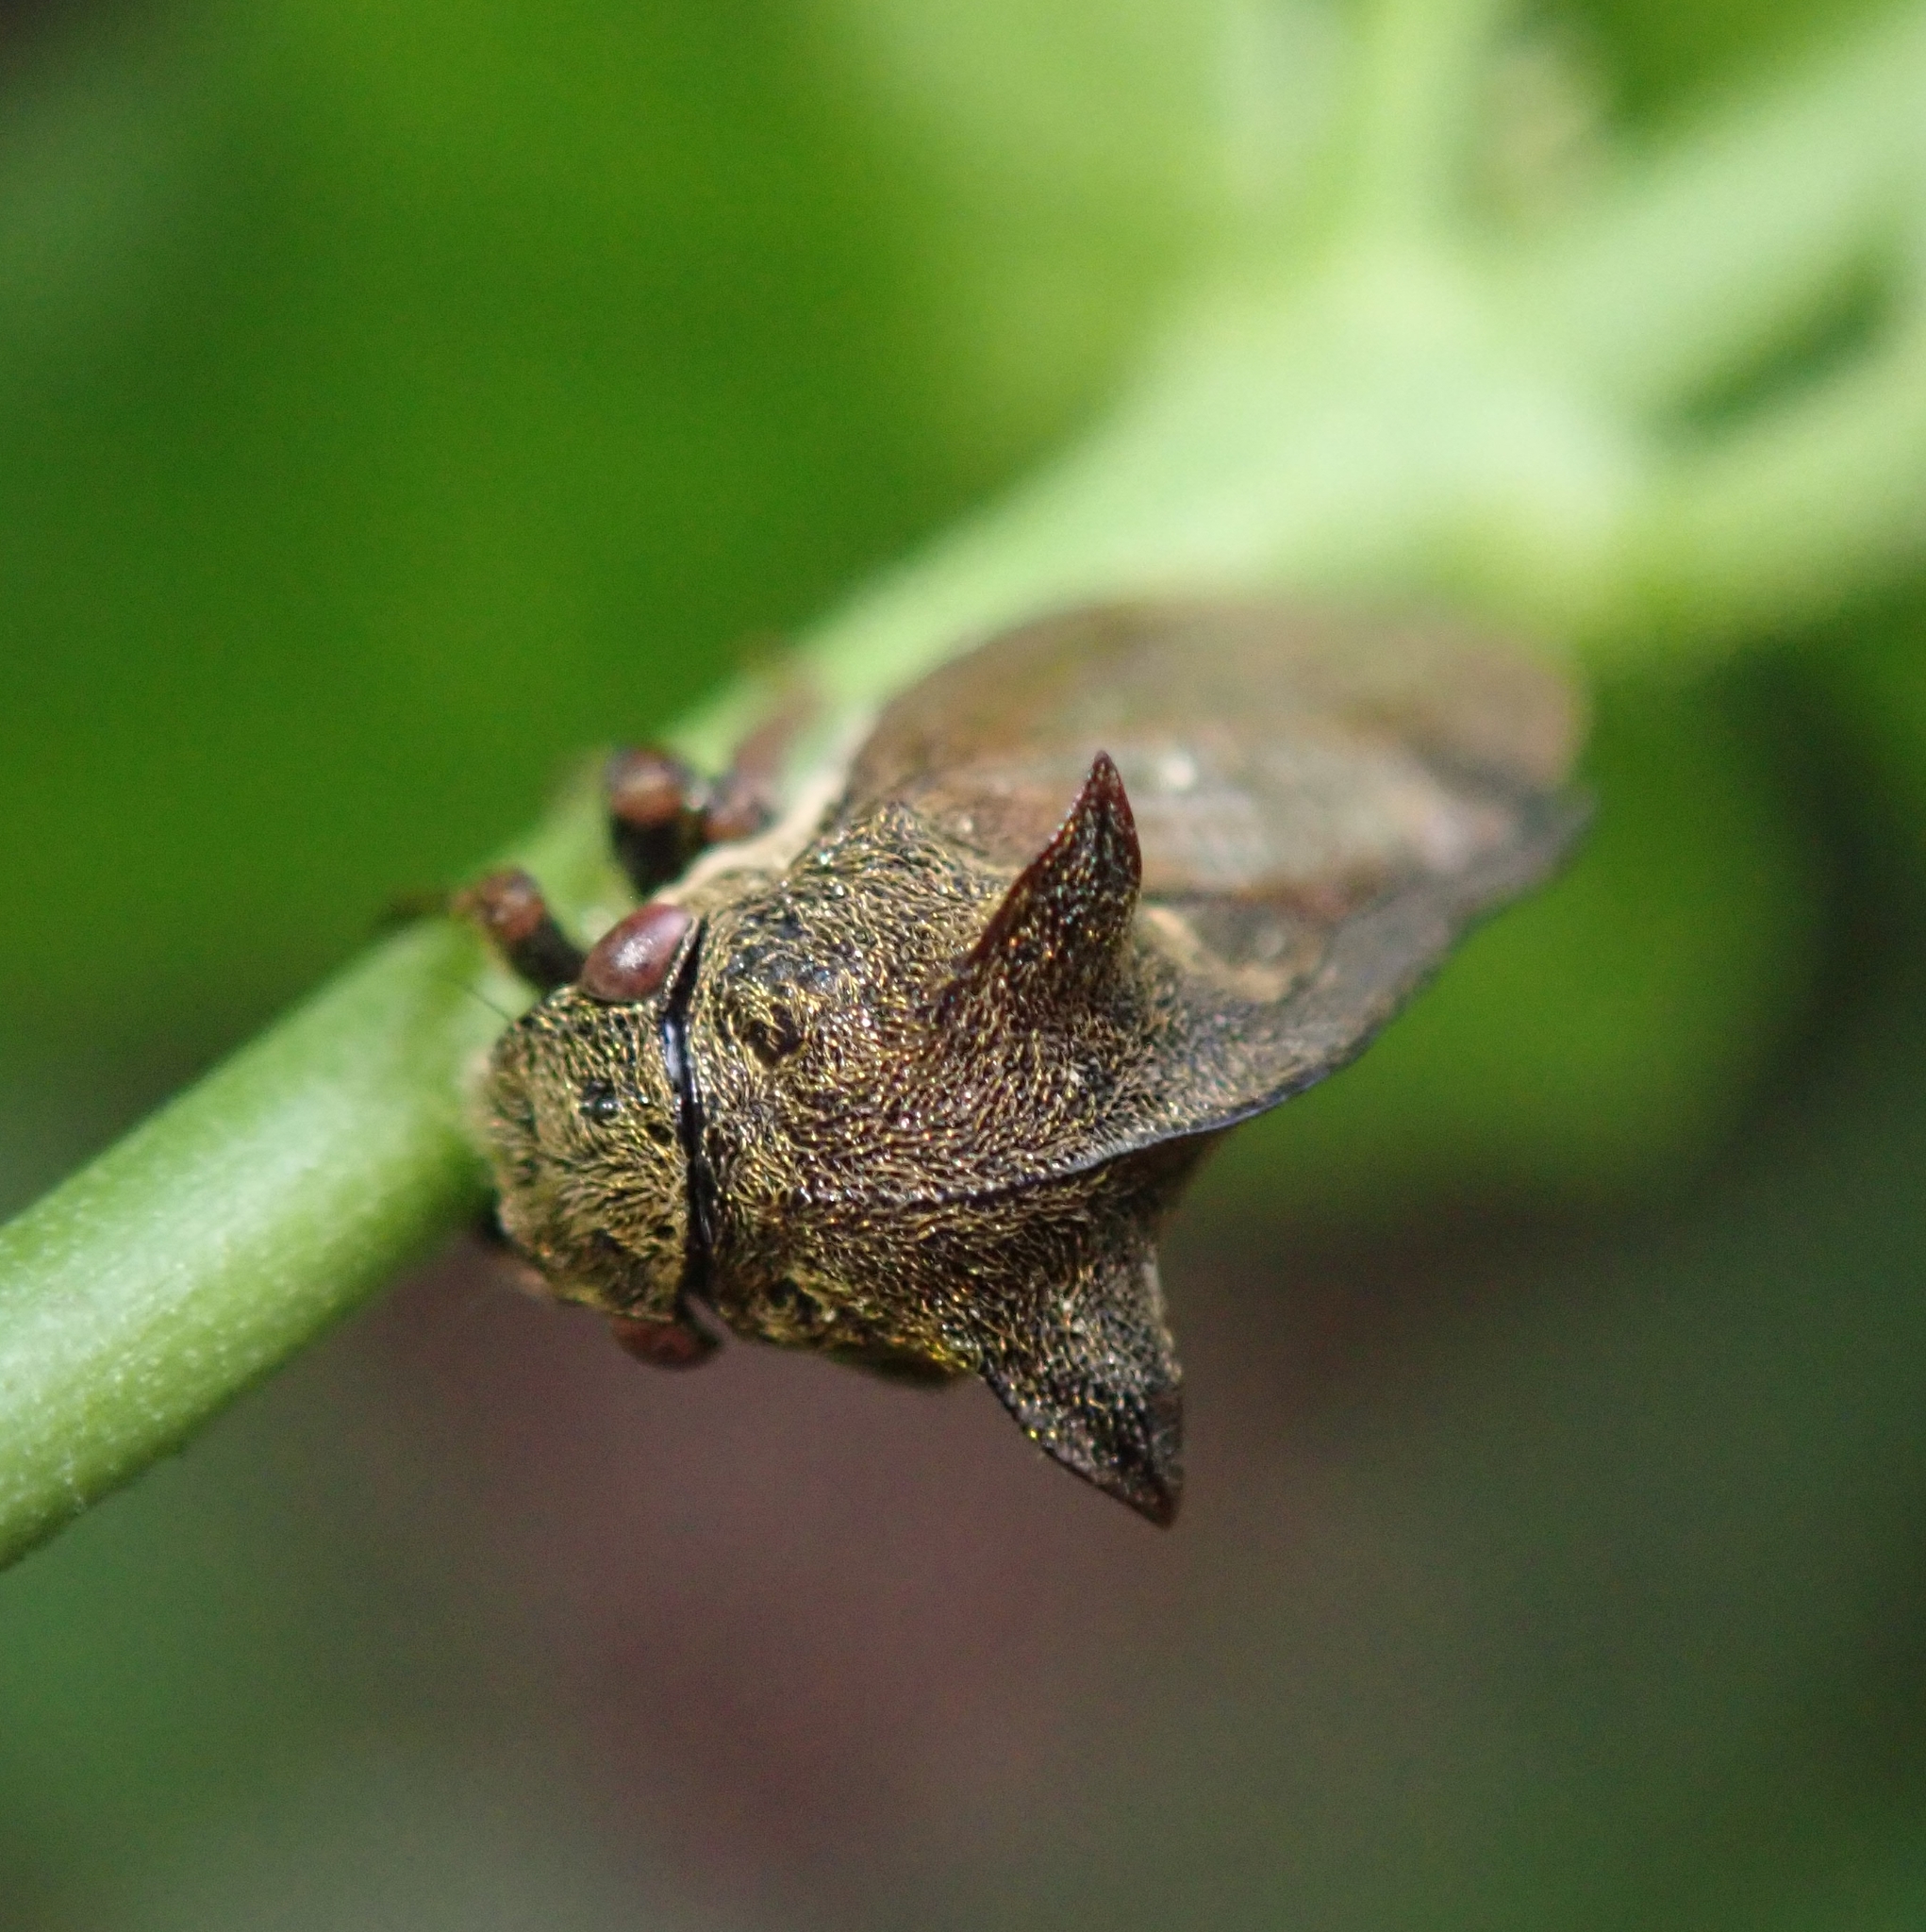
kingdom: Animalia
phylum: Arthropoda
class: Insecta
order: Hemiptera
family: Membracidae
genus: Centrotus
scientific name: Centrotus cornuta
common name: Treehopper
